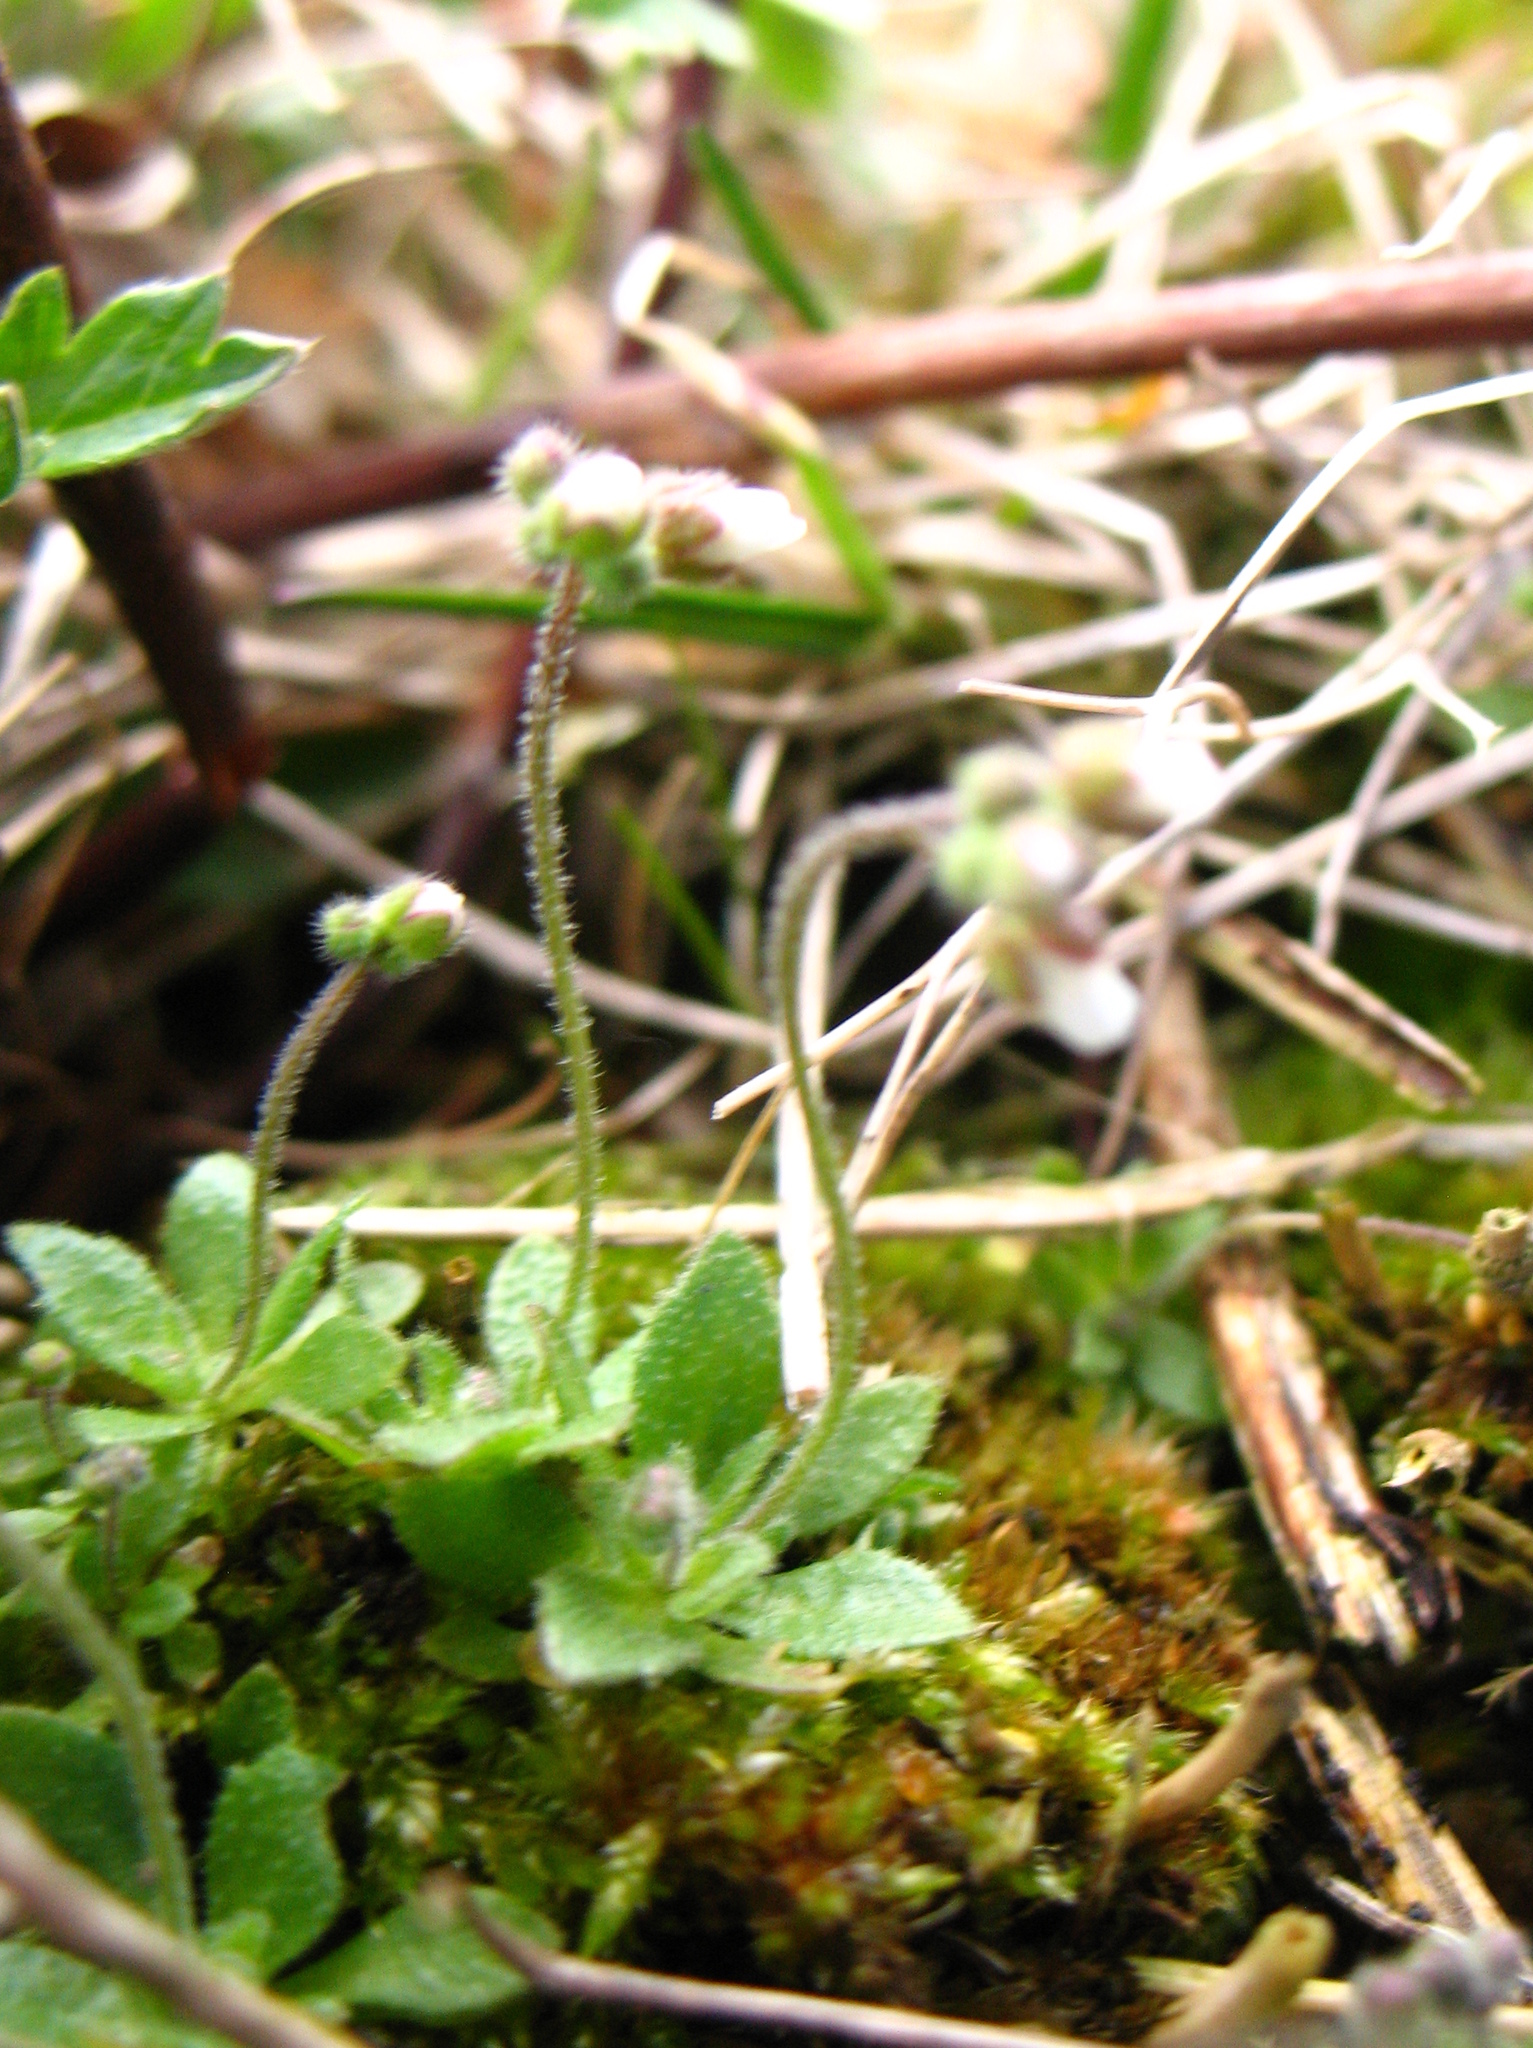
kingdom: Plantae
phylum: Tracheophyta
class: Magnoliopsida
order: Brassicales
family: Brassicaceae
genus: Draba
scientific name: Draba verna
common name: Spring draba
